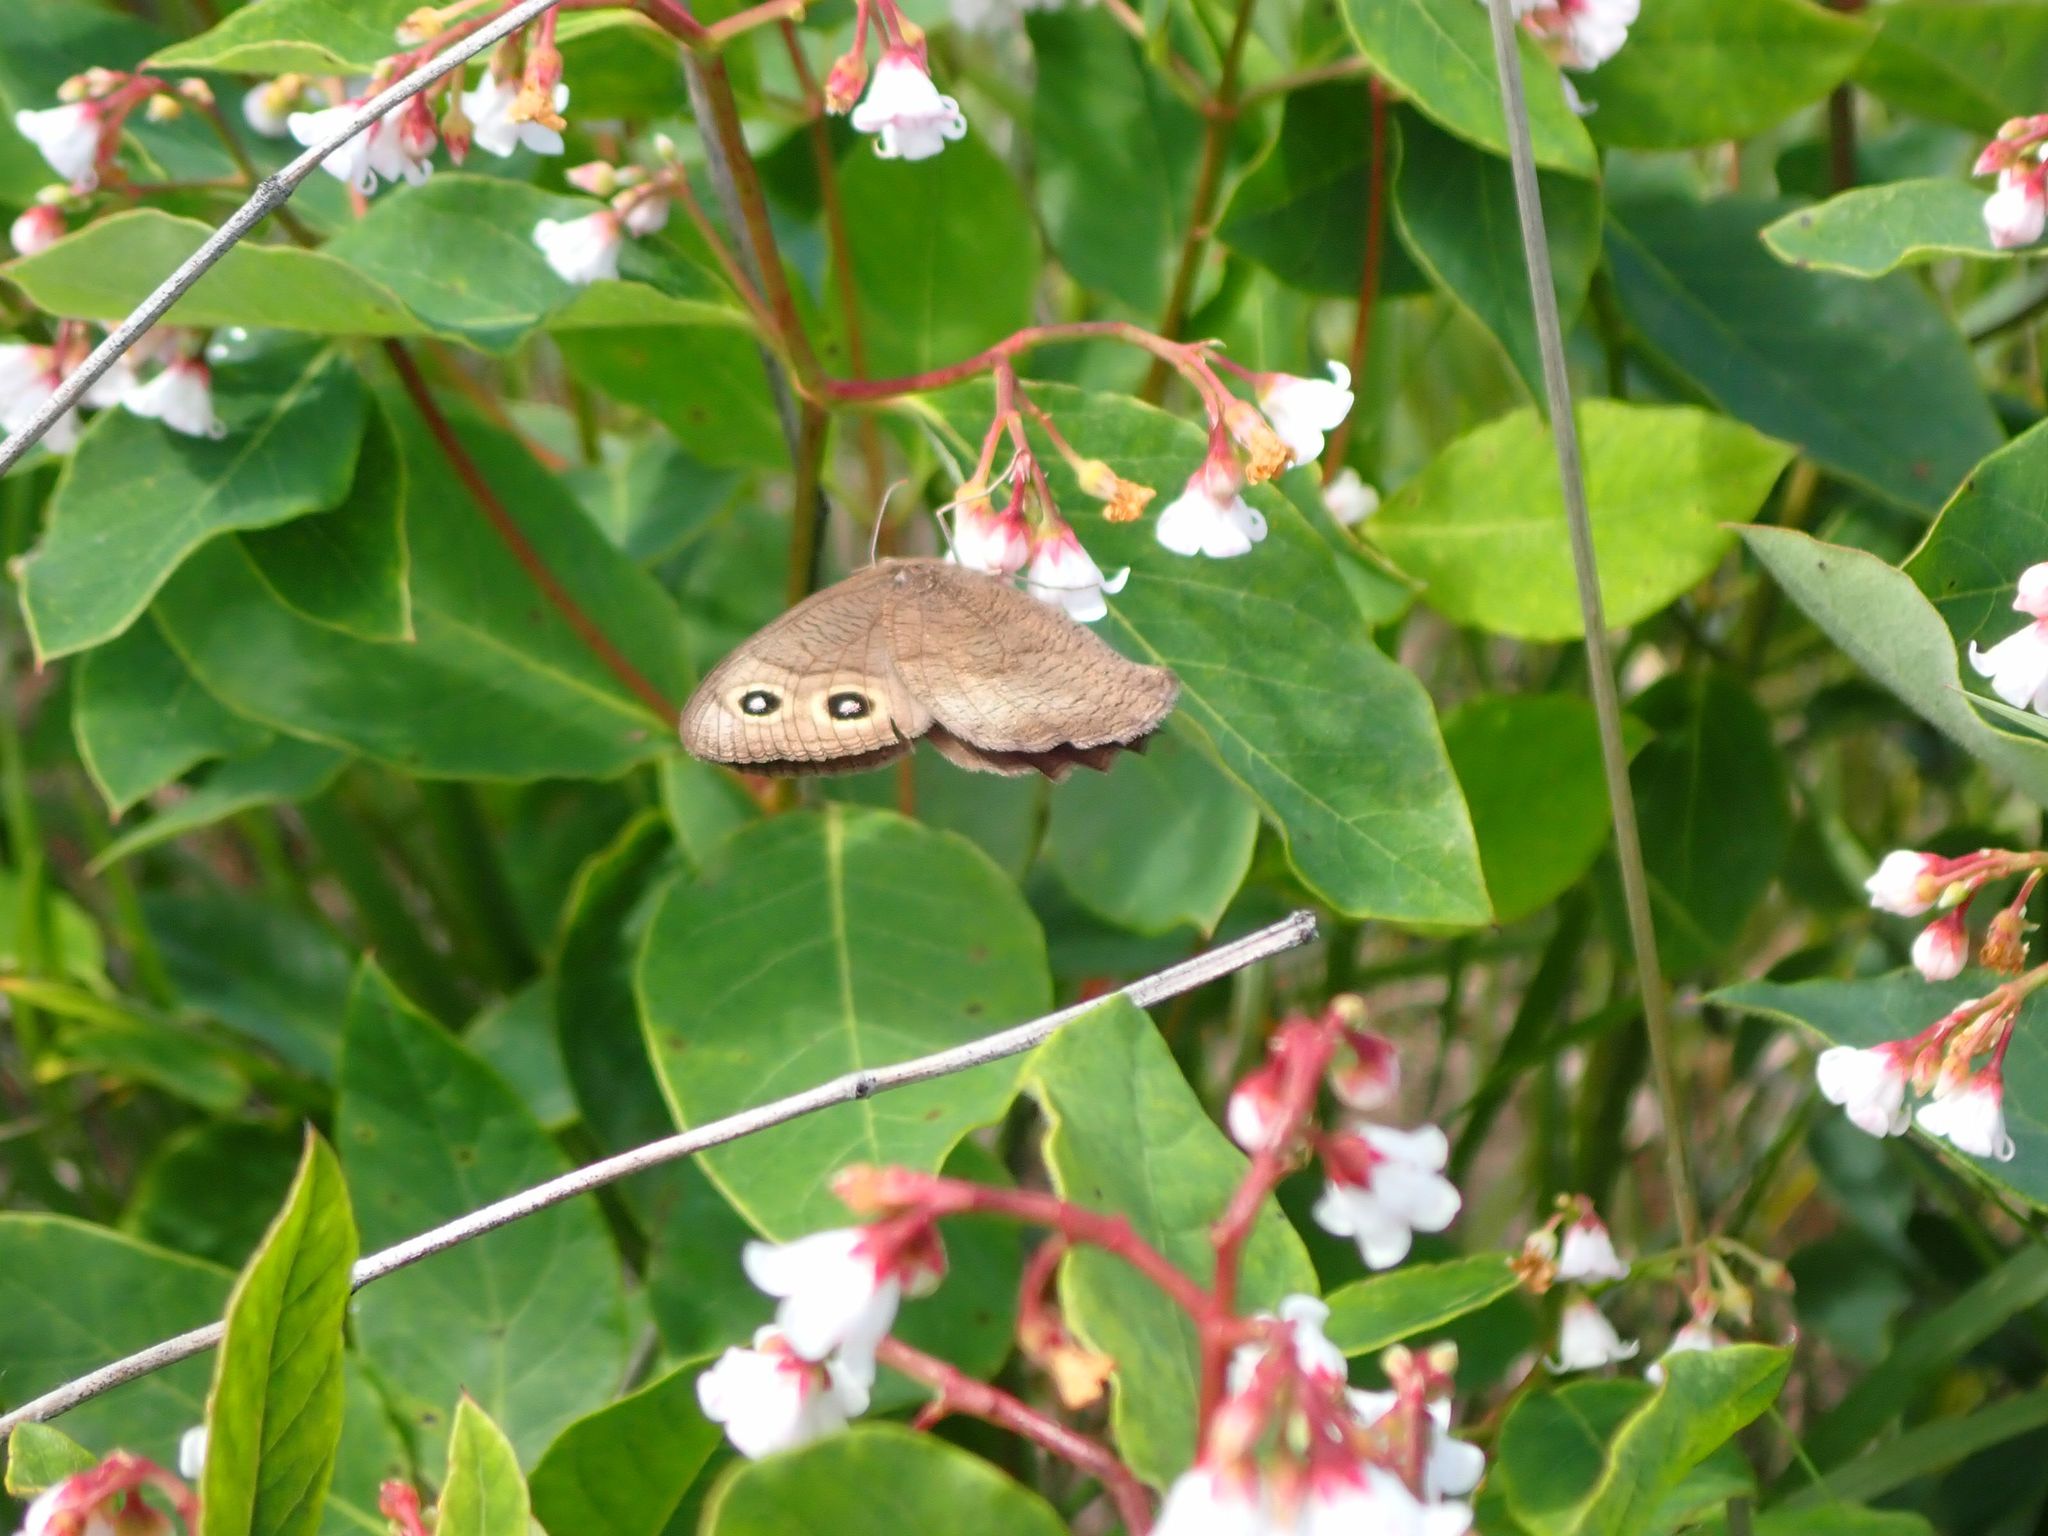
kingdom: Animalia
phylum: Arthropoda
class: Insecta
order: Lepidoptera
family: Nymphalidae
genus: Cercyonis
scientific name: Cercyonis pegala
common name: Common wood-nymph
